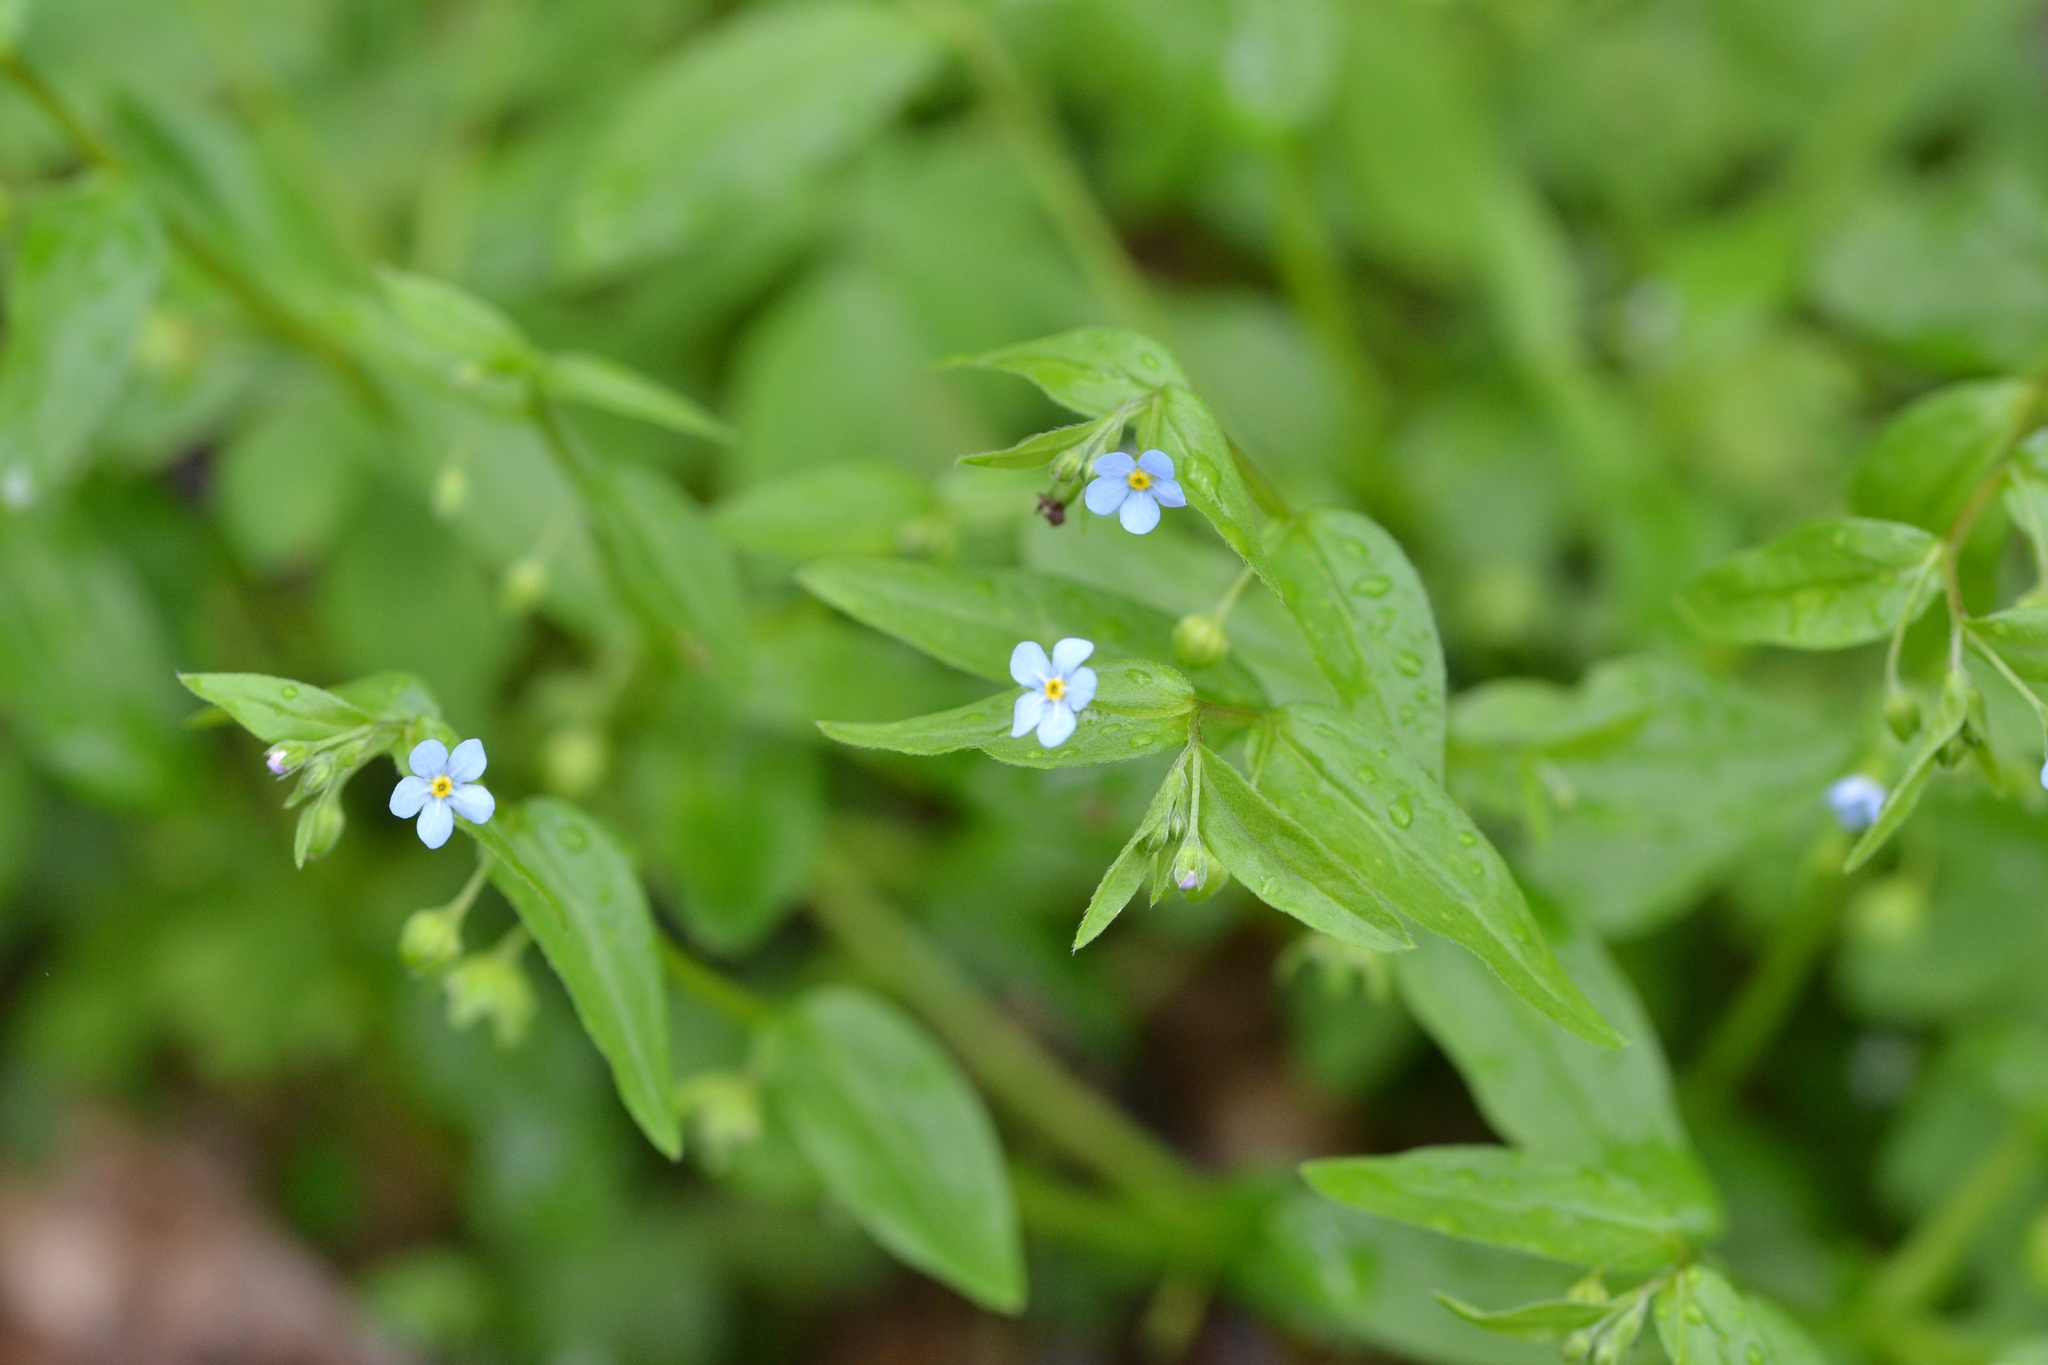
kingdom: Plantae
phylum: Tracheophyta
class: Magnoliopsida
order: Boraginales
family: Boraginaceae
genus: Memoremea
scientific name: Memoremea scorpioides
